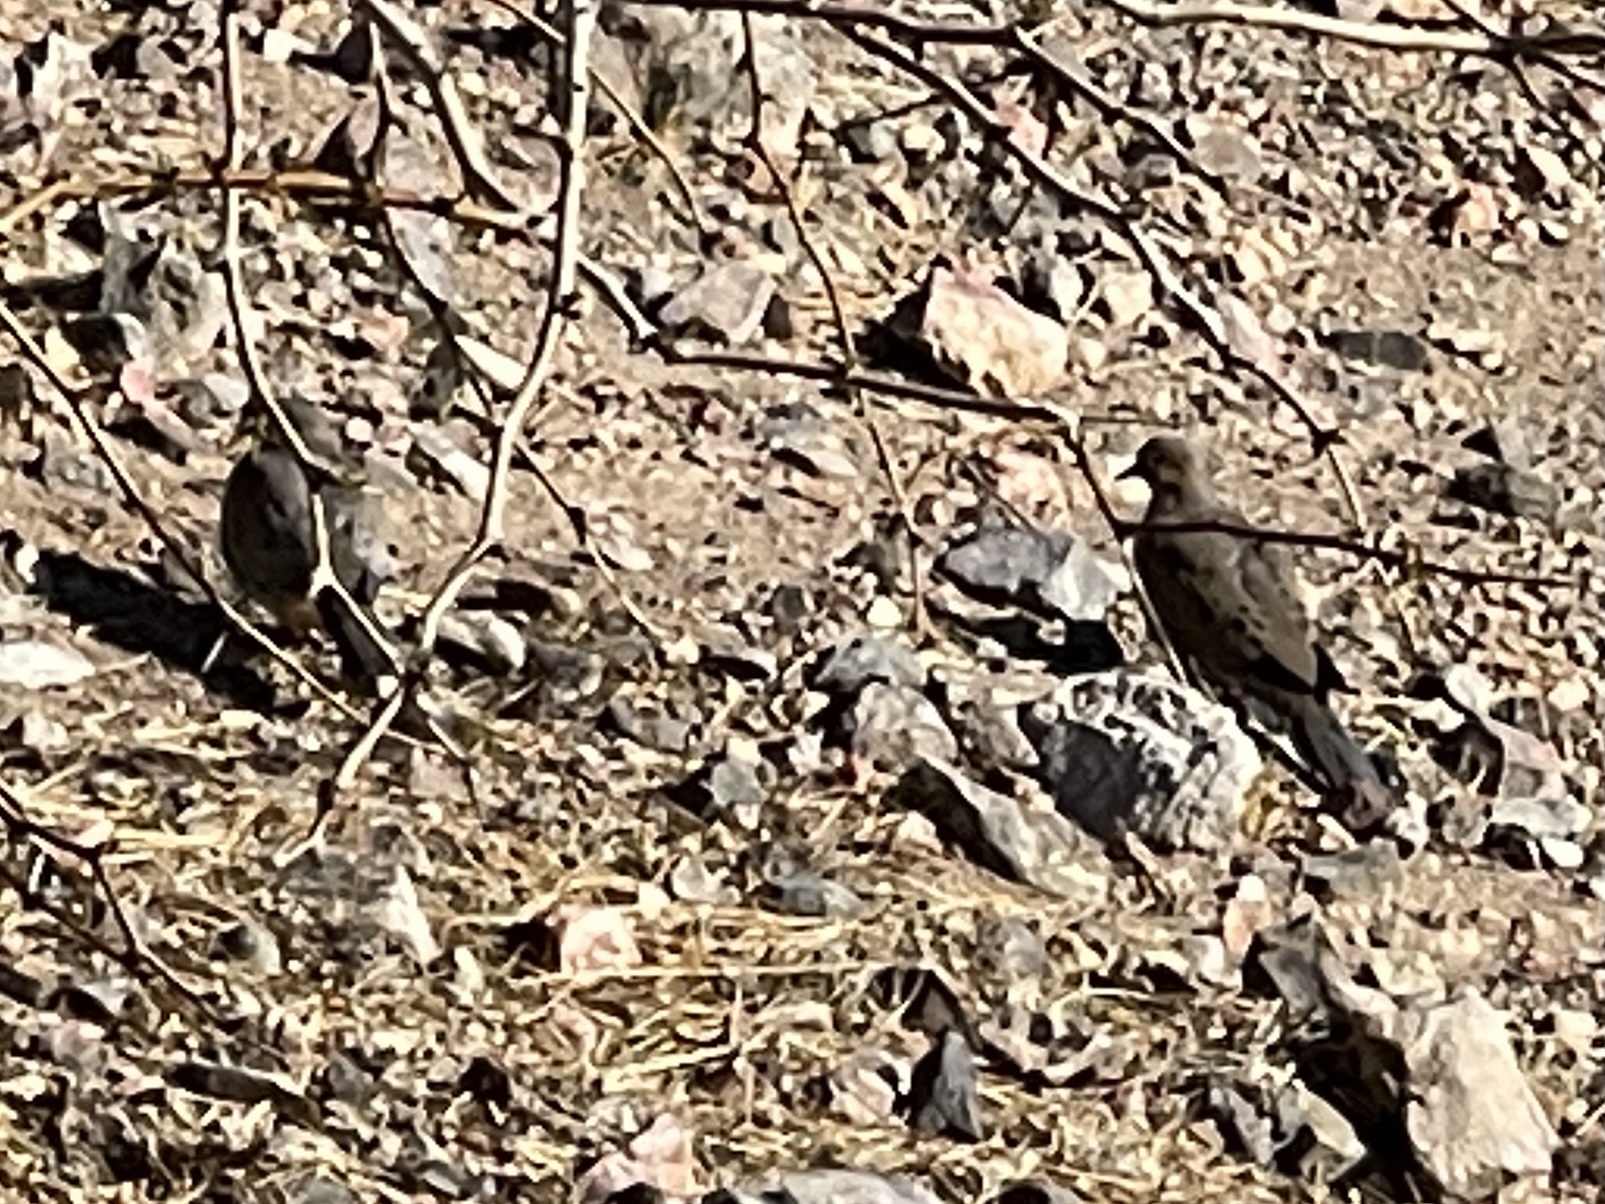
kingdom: Animalia
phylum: Chordata
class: Aves
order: Columbiformes
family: Columbidae
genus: Zenaida
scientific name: Zenaida macroura
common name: Mourning dove
